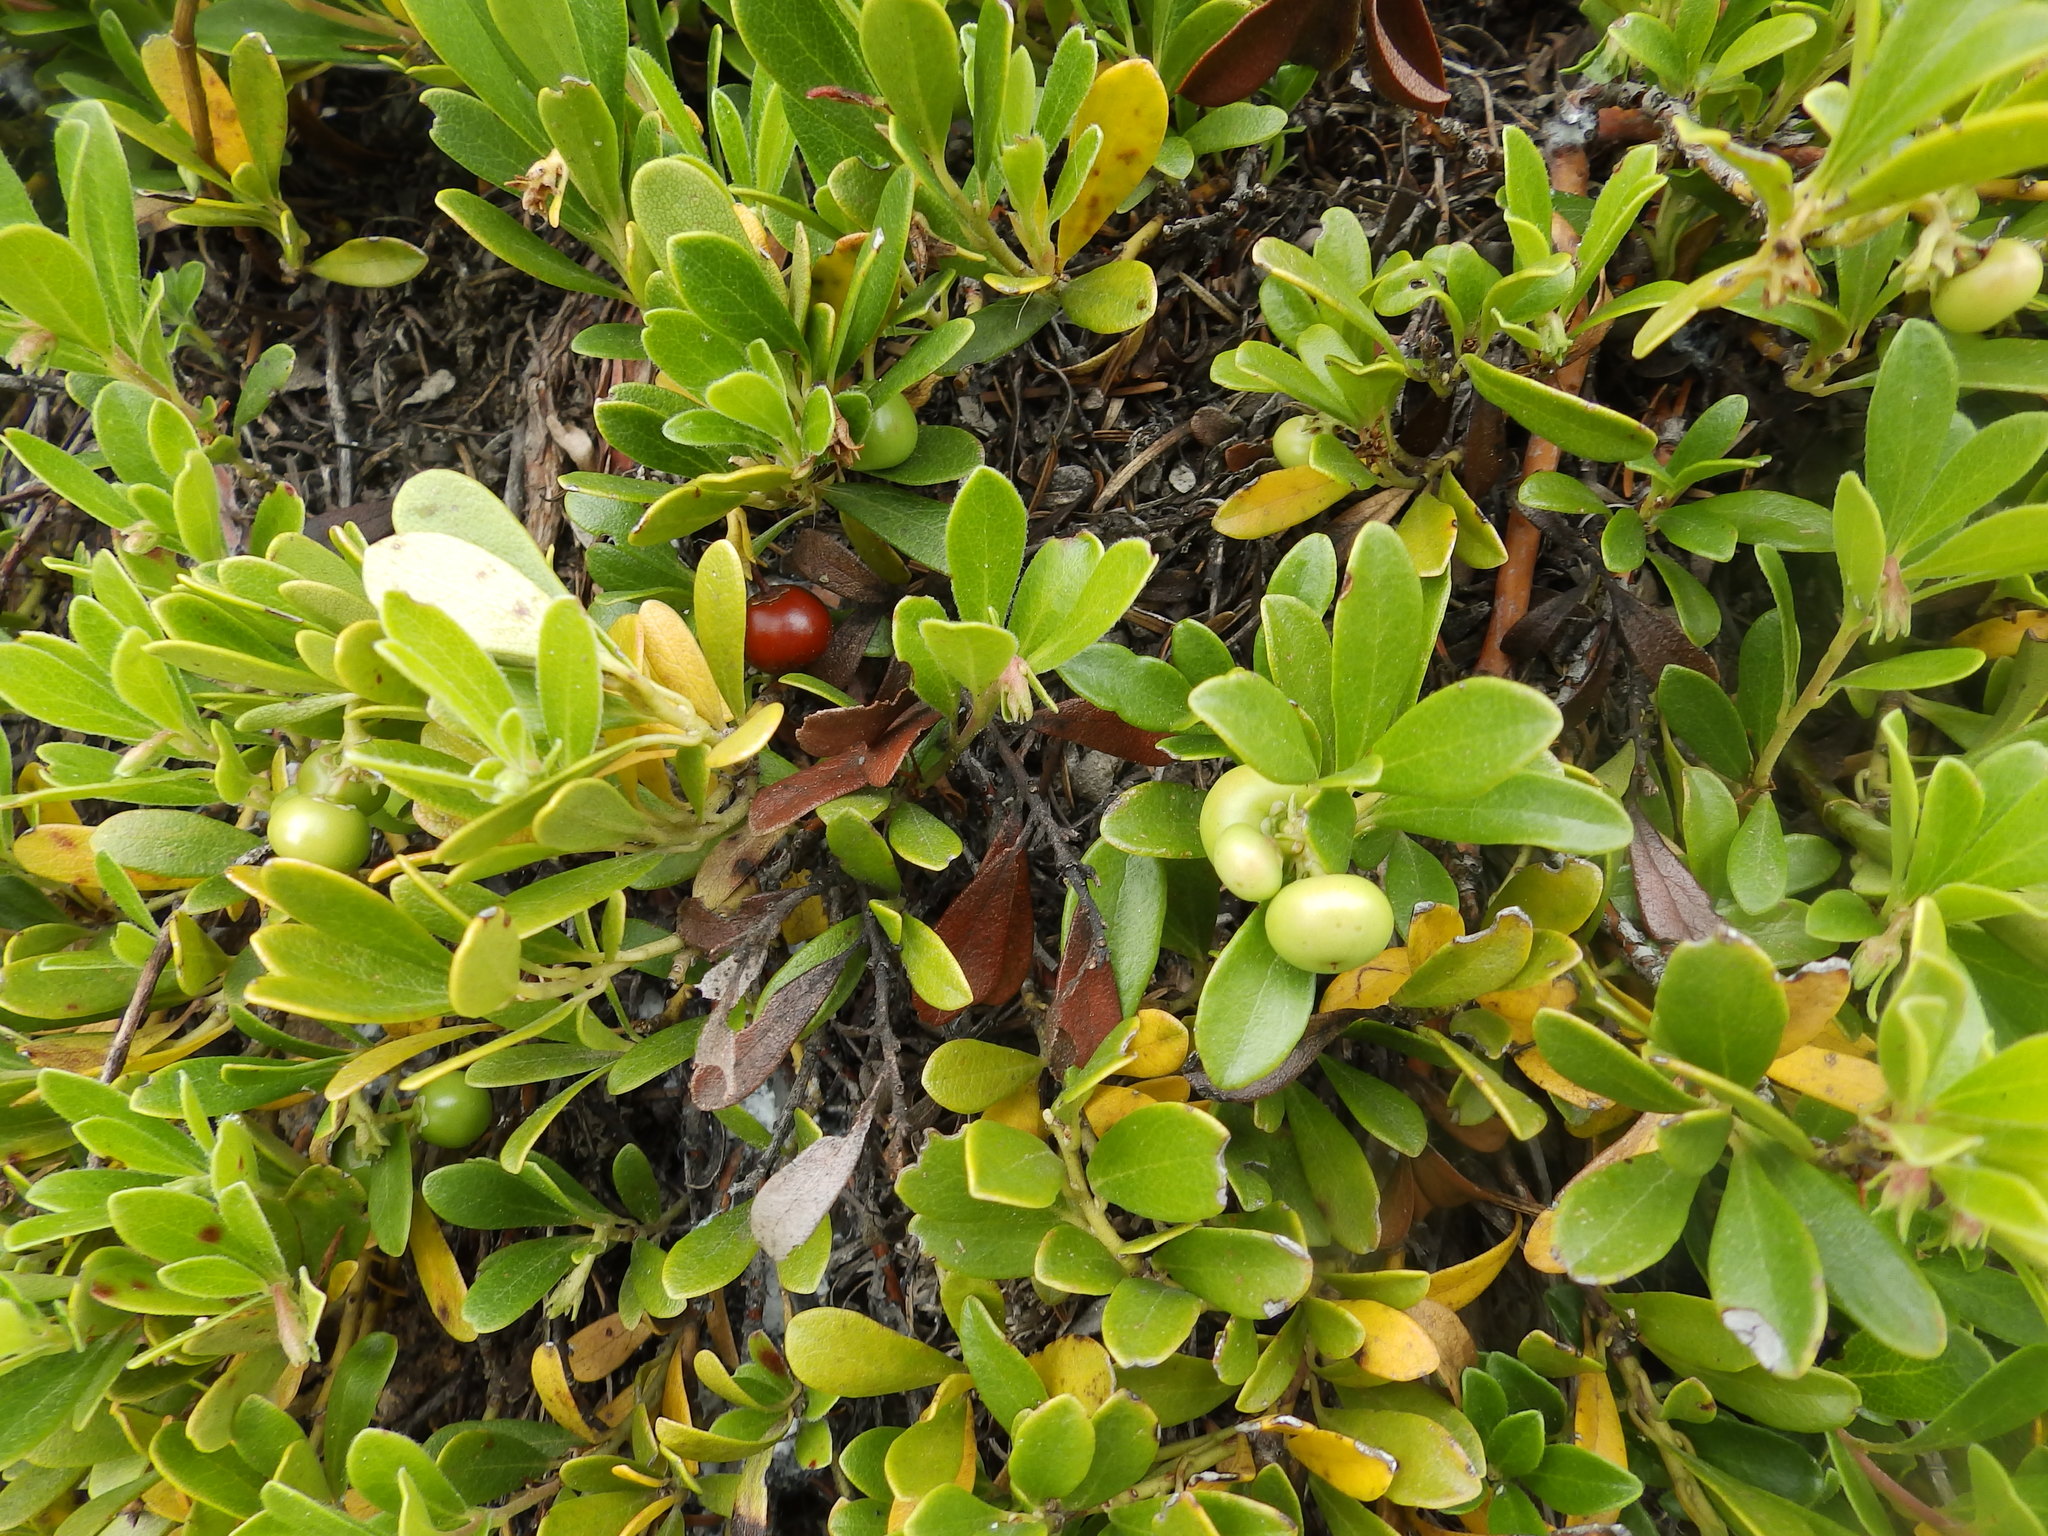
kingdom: Plantae
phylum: Tracheophyta
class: Magnoliopsida
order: Ericales
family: Ericaceae
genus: Arctostaphylos
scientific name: Arctostaphylos uva-ursi
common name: Bearberry
